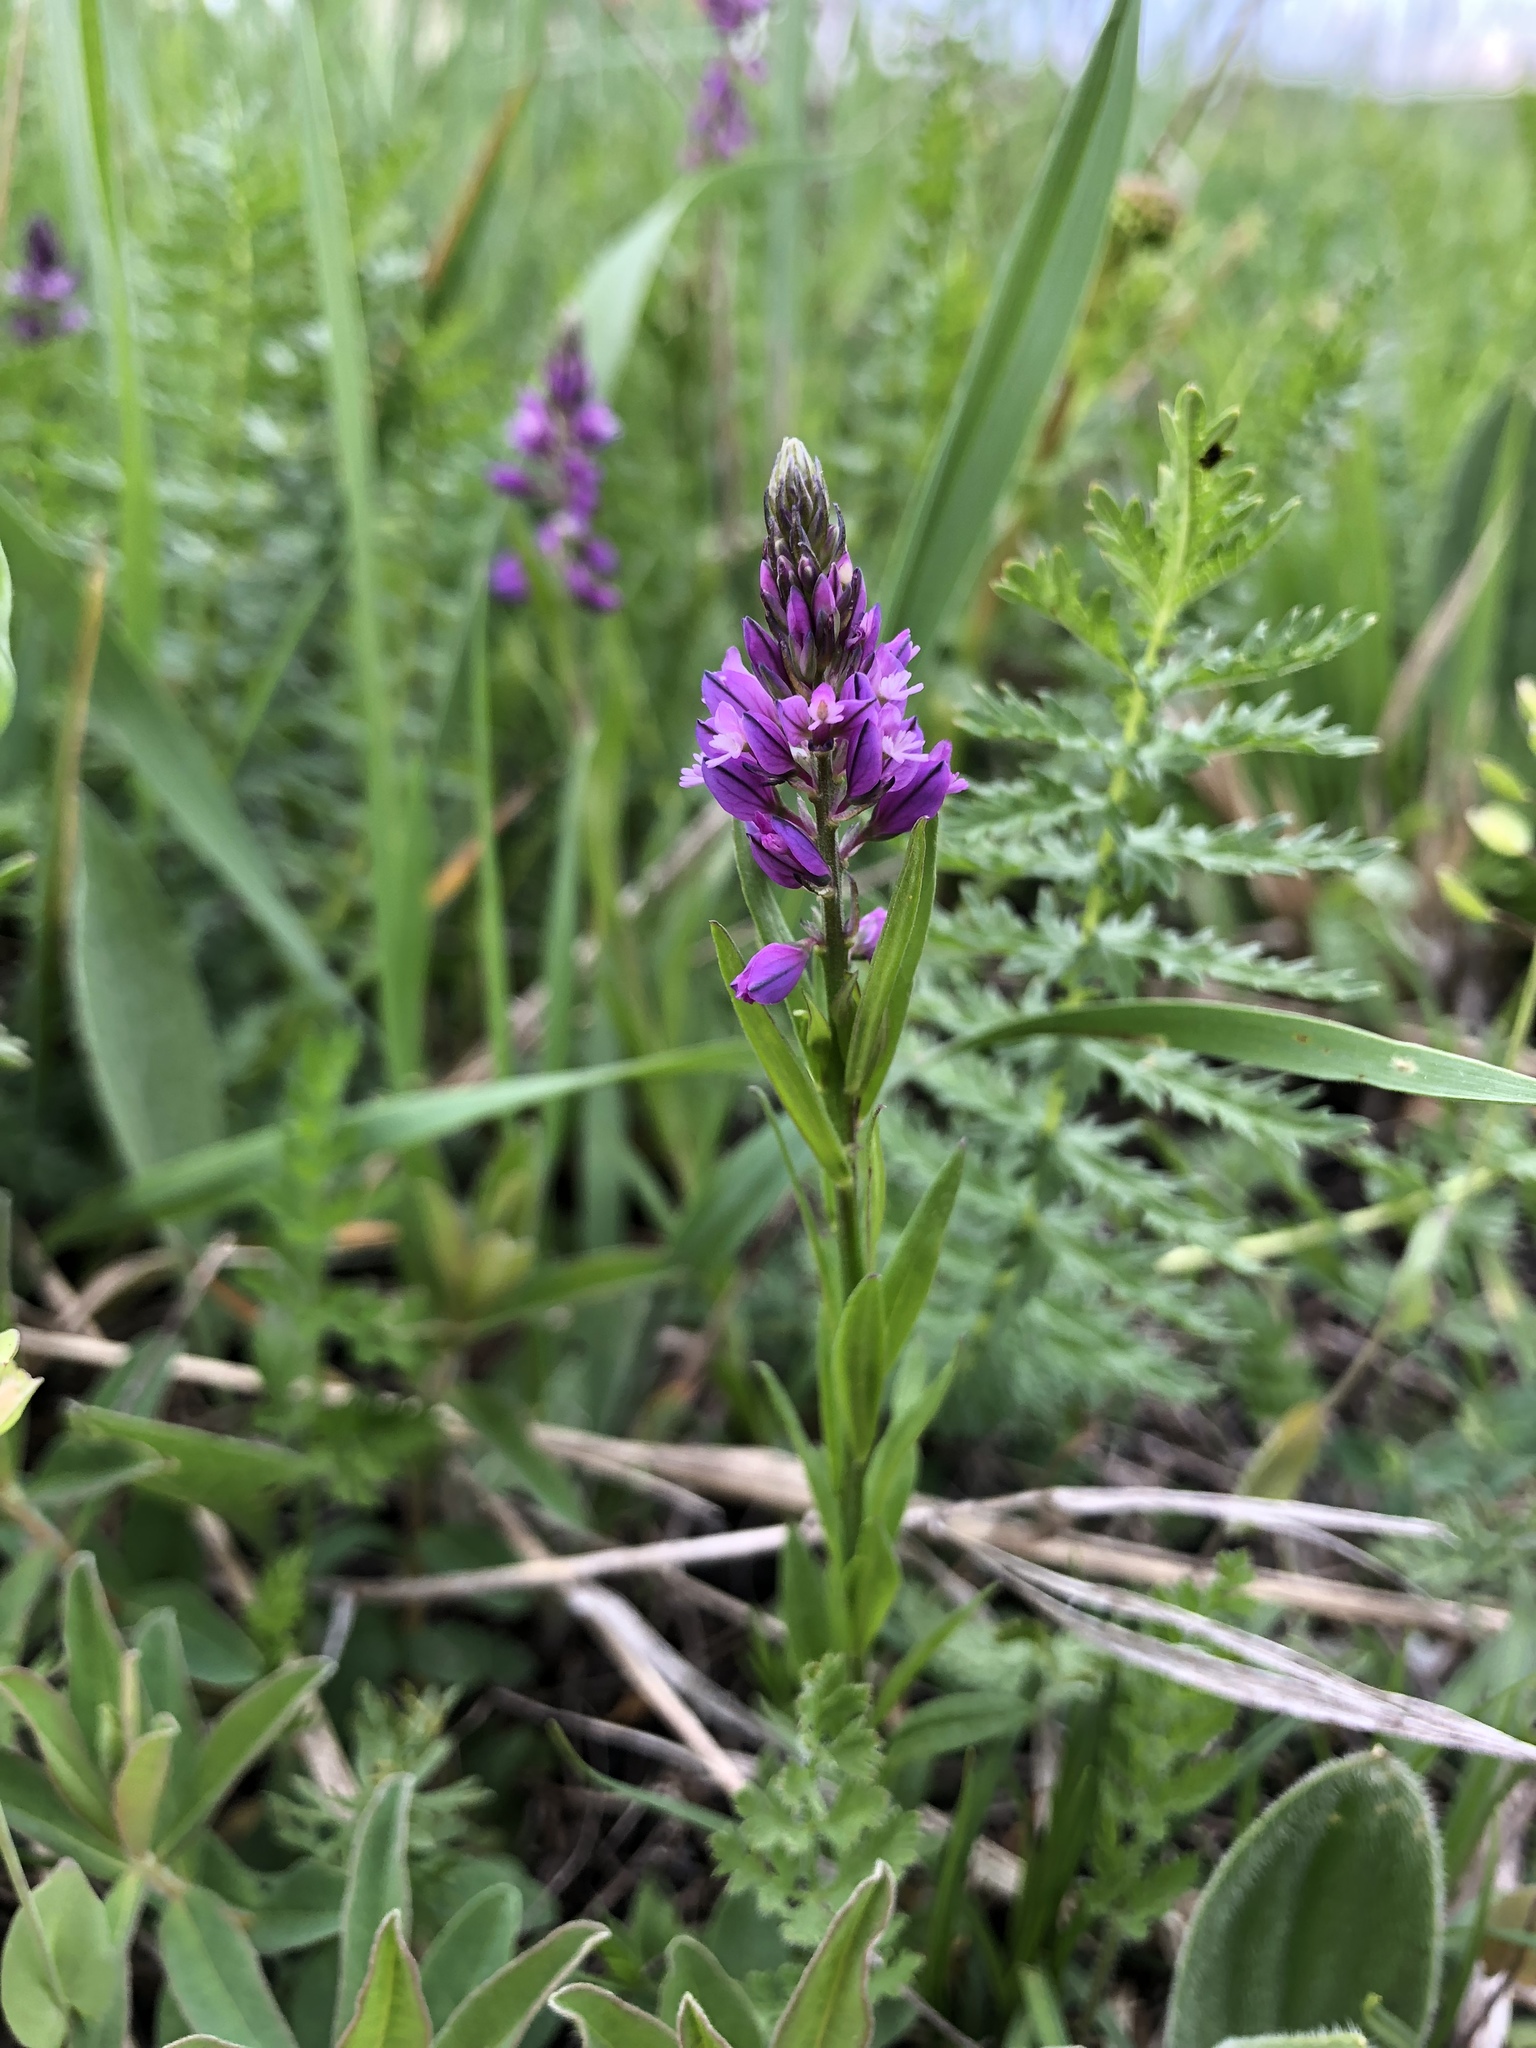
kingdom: Plantae
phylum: Tracheophyta
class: Magnoliopsida
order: Fabales
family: Polygalaceae
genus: Polygala
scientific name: Polygala vulgaris
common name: Common milkwort
